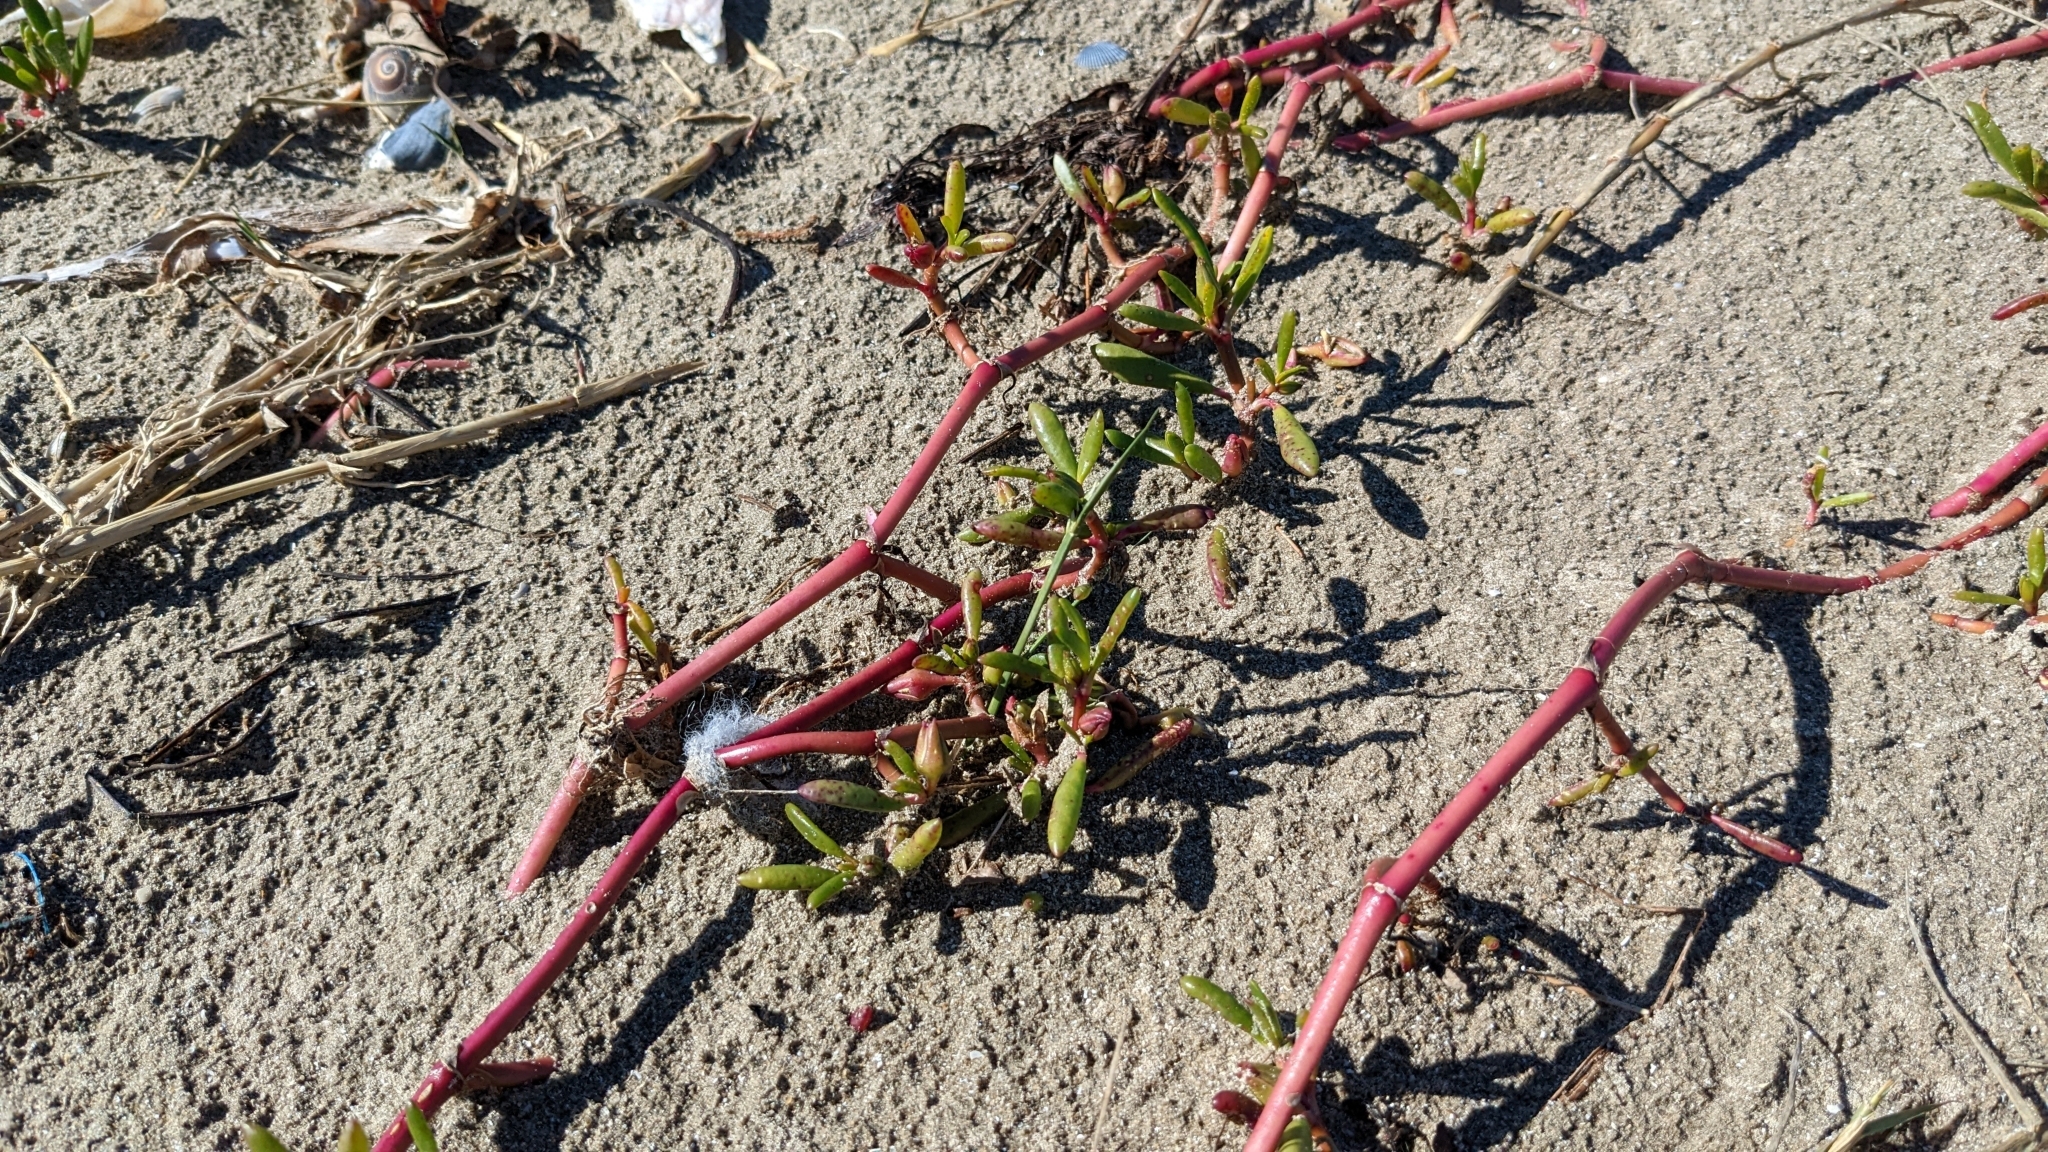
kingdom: Plantae
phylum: Tracheophyta
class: Magnoliopsida
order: Caryophyllales
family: Aizoaceae
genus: Sesuvium
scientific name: Sesuvium portulacastrum
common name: Sea-purslane
